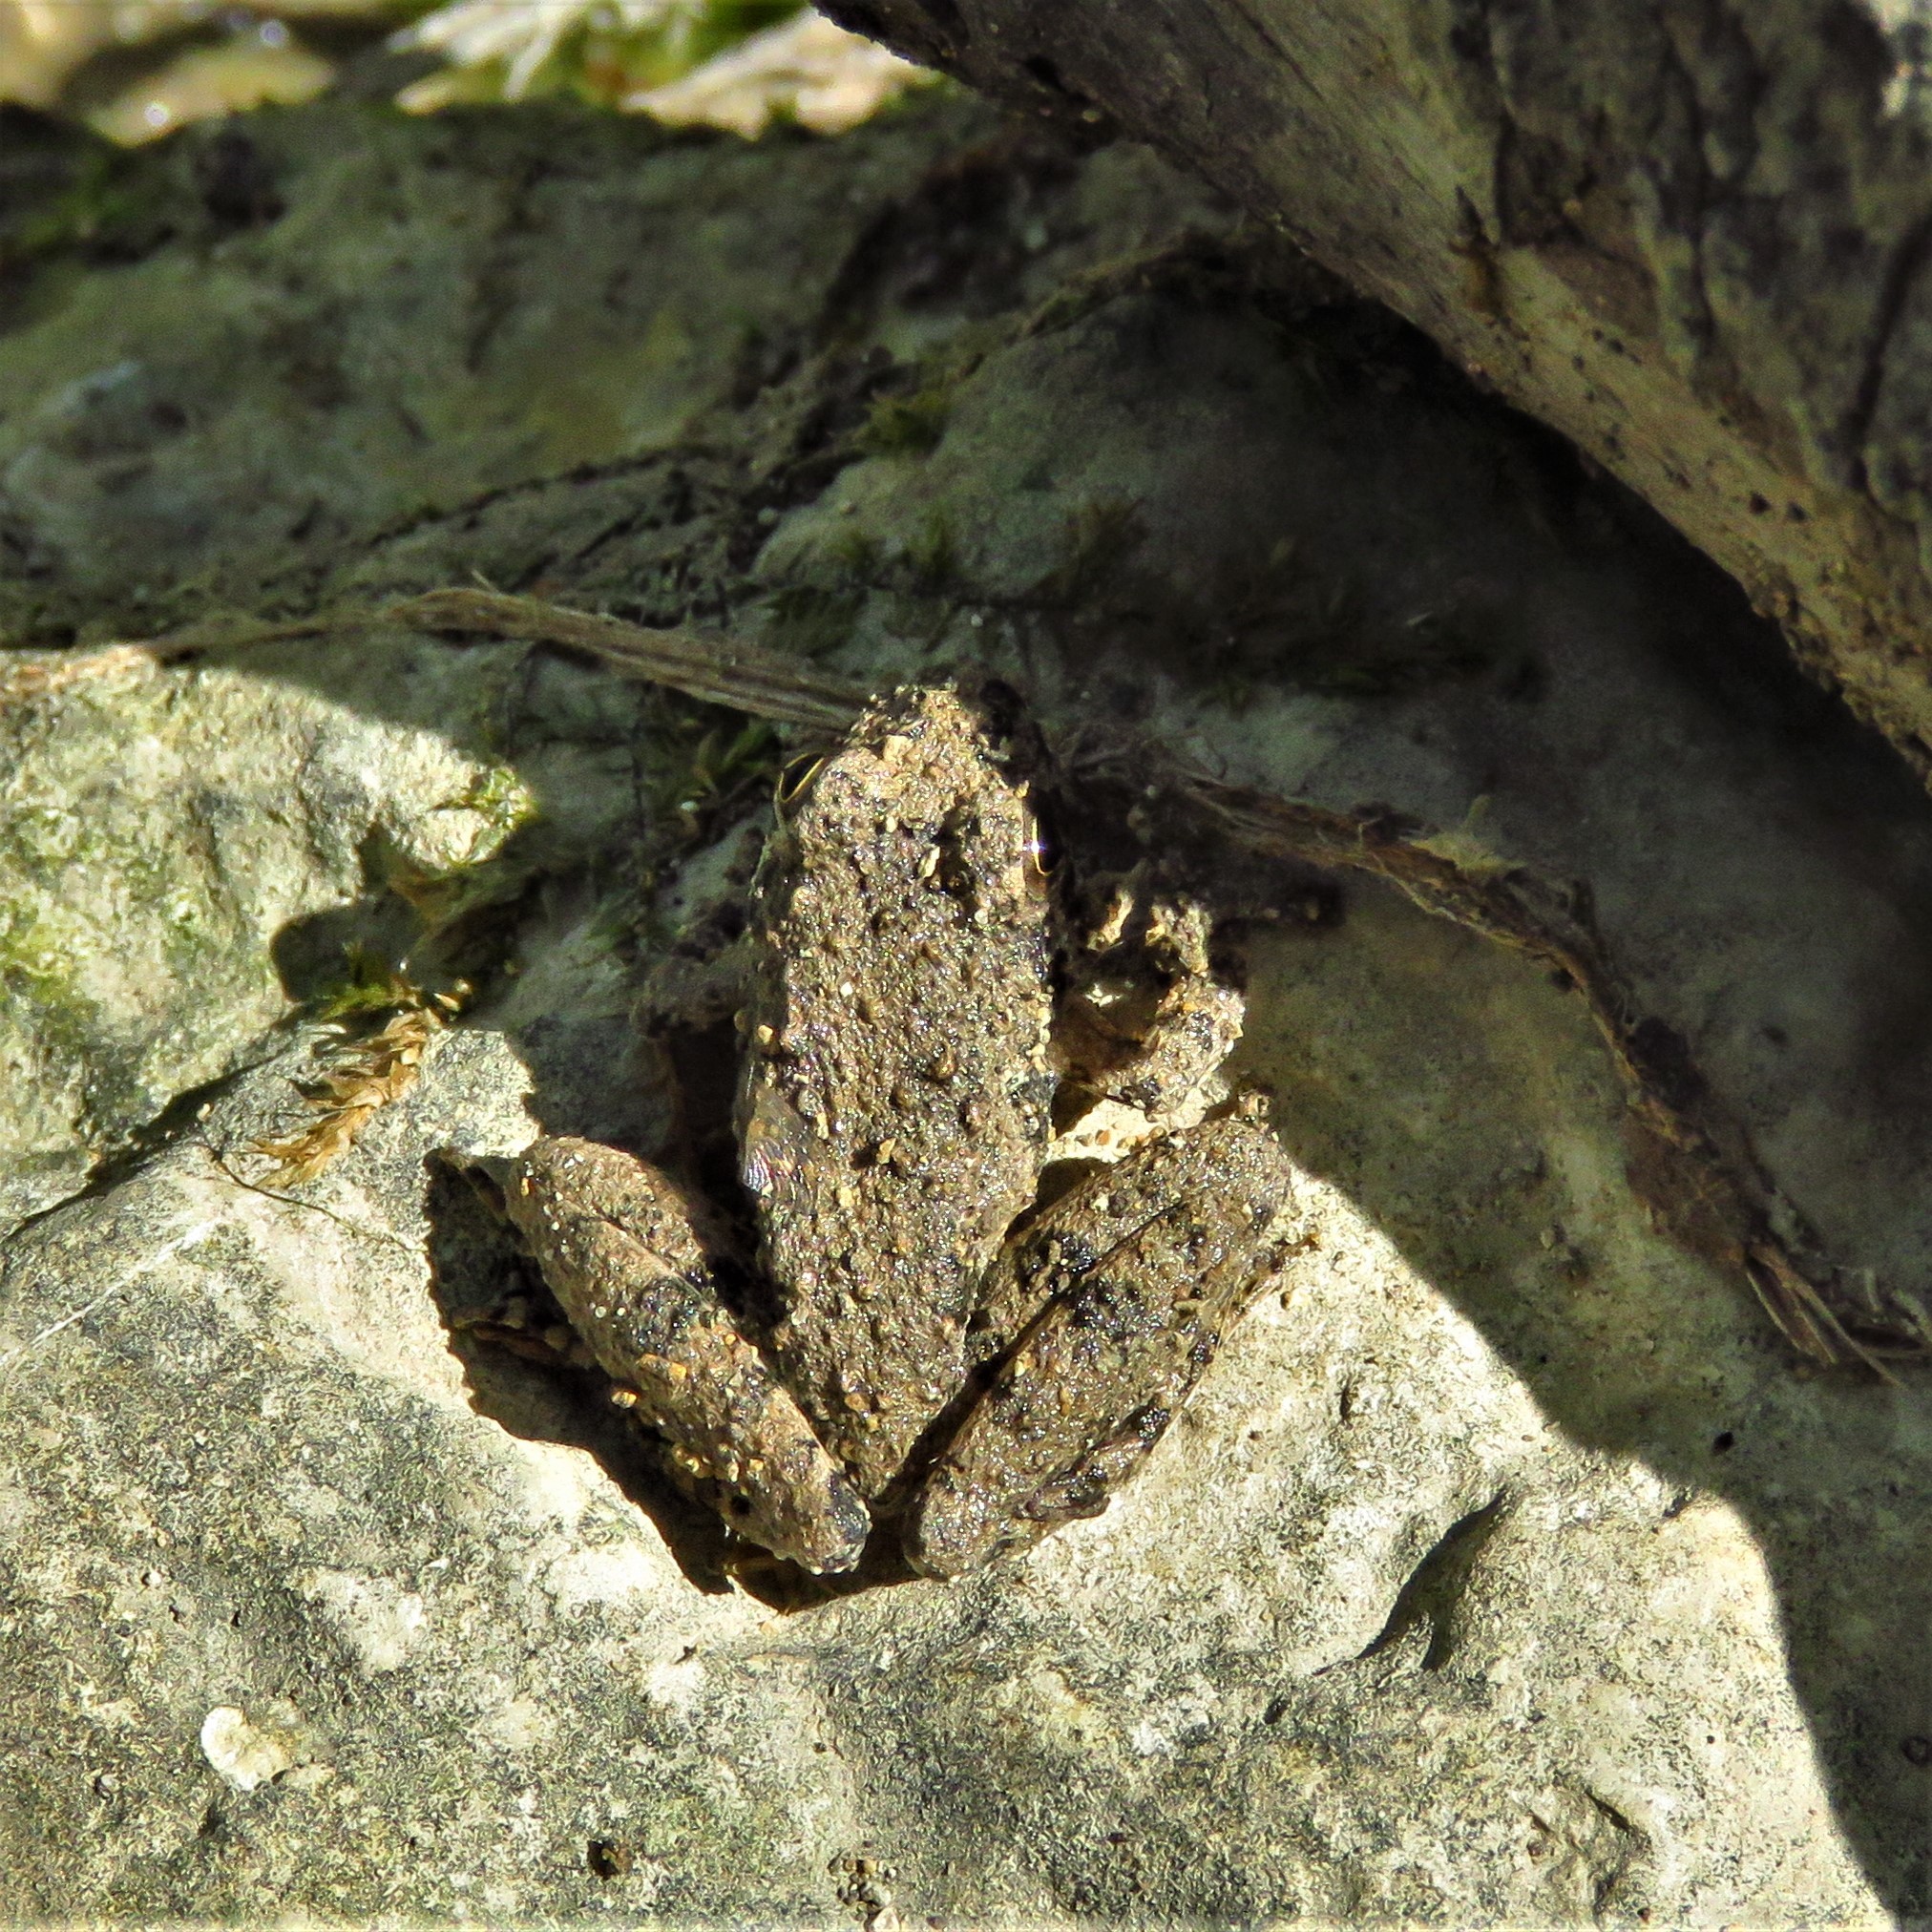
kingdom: Animalia
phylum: Chordata
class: Amphibia
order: Anura
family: Hylidae
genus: Acris
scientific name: Acris blanchardi
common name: Blanchard's cricket frog
